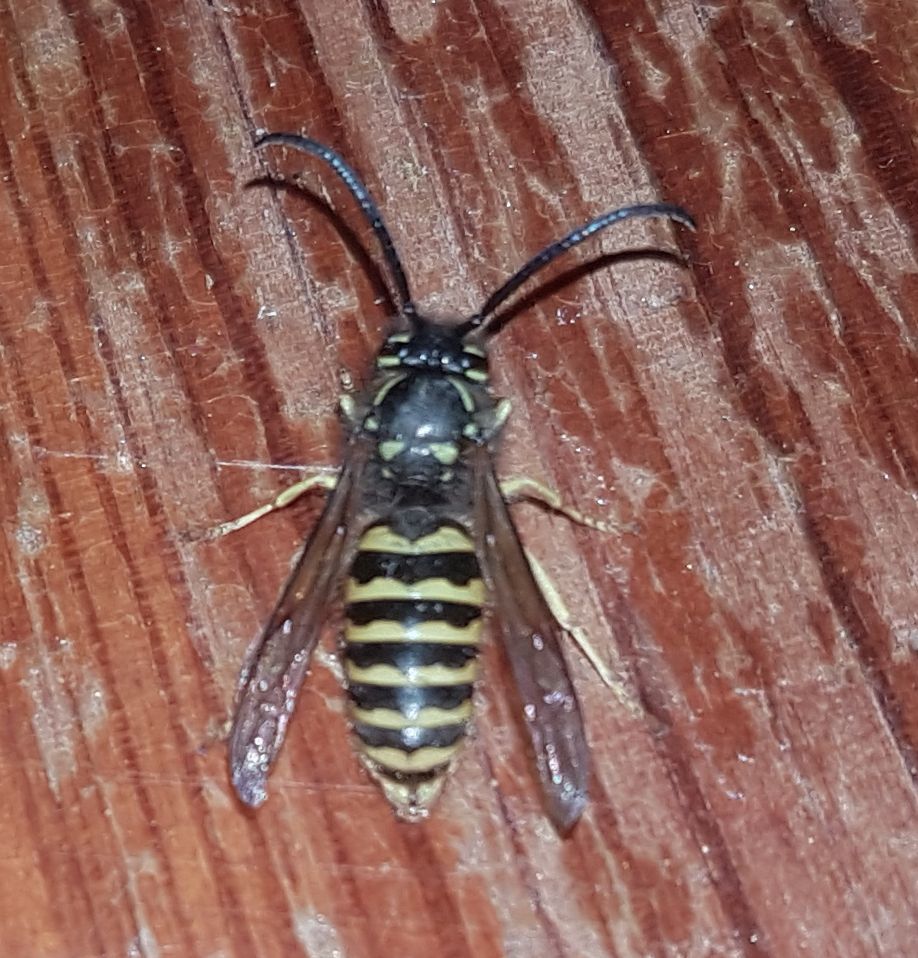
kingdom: Animalia
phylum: Arthropoda
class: Insecta
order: Hymenoptera
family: Vespidae
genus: Vespula
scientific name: Vespula flavopilosa
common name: Downy yellowjacket
